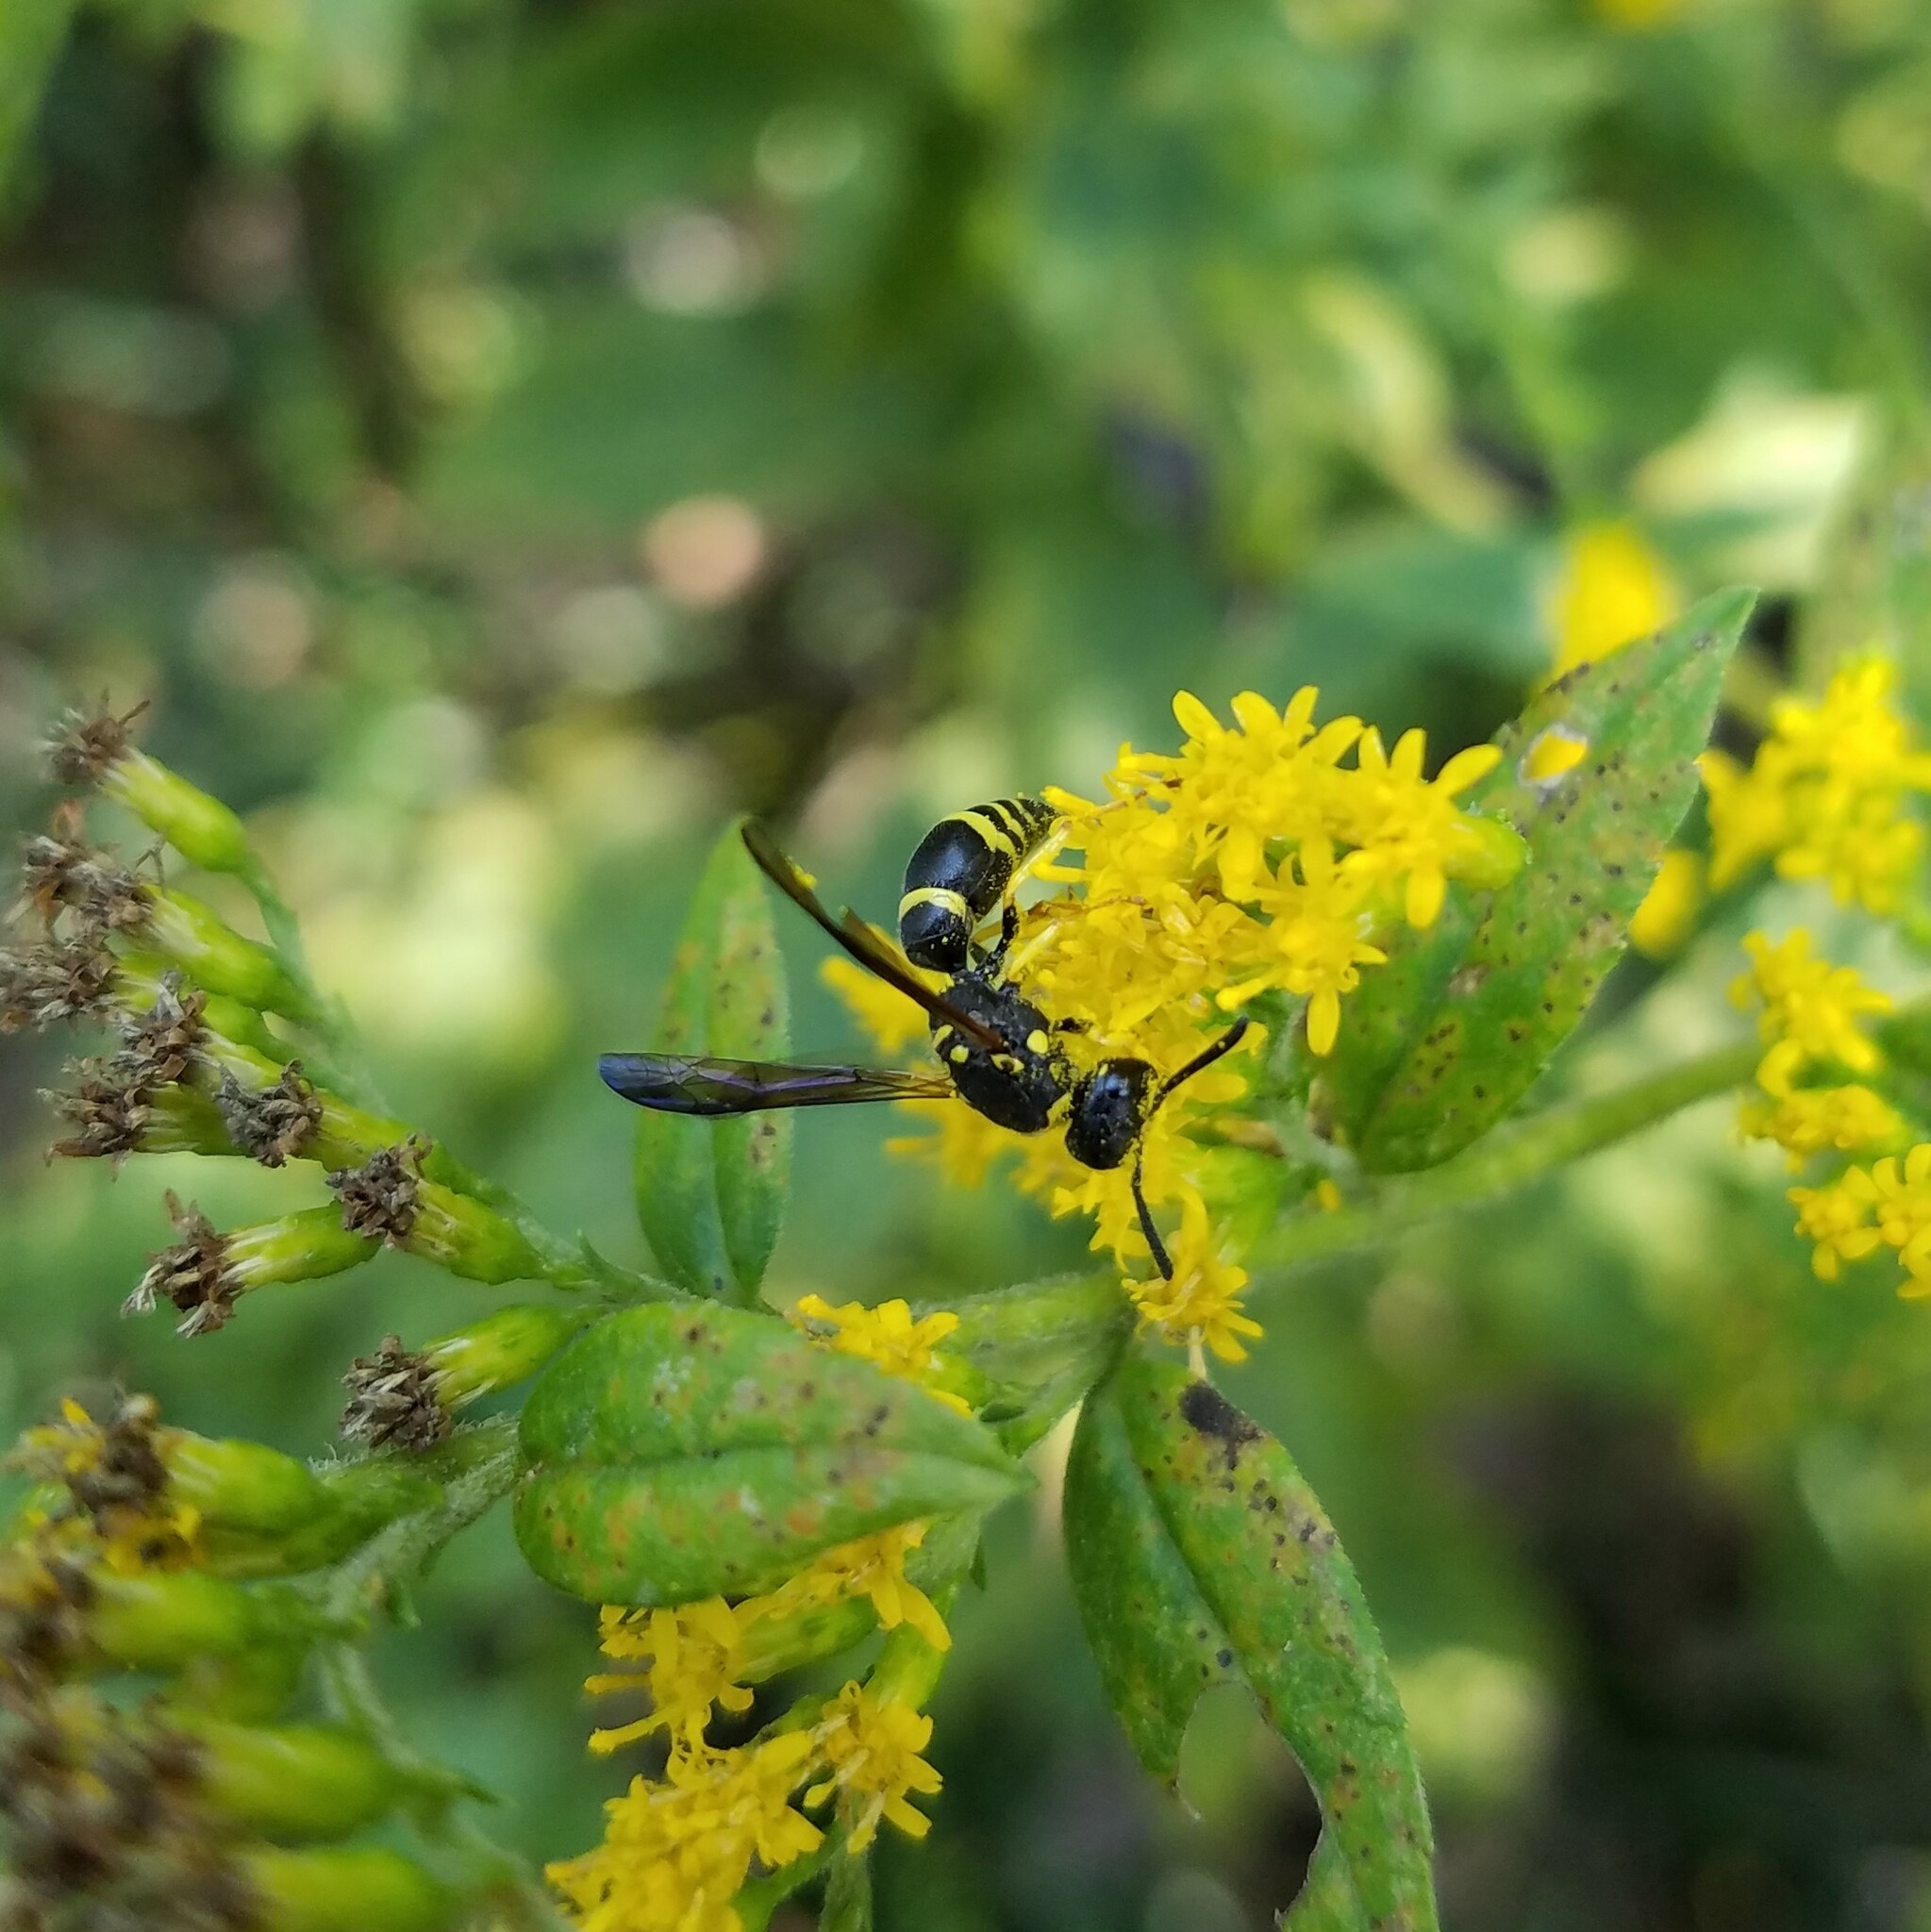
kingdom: Animalia
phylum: Arthropoda
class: Insecta
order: Hymenoptera
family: Vespidae
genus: Ancistrocerus
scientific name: Ancistrocerus adiabatus
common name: Bramble mason wasp
